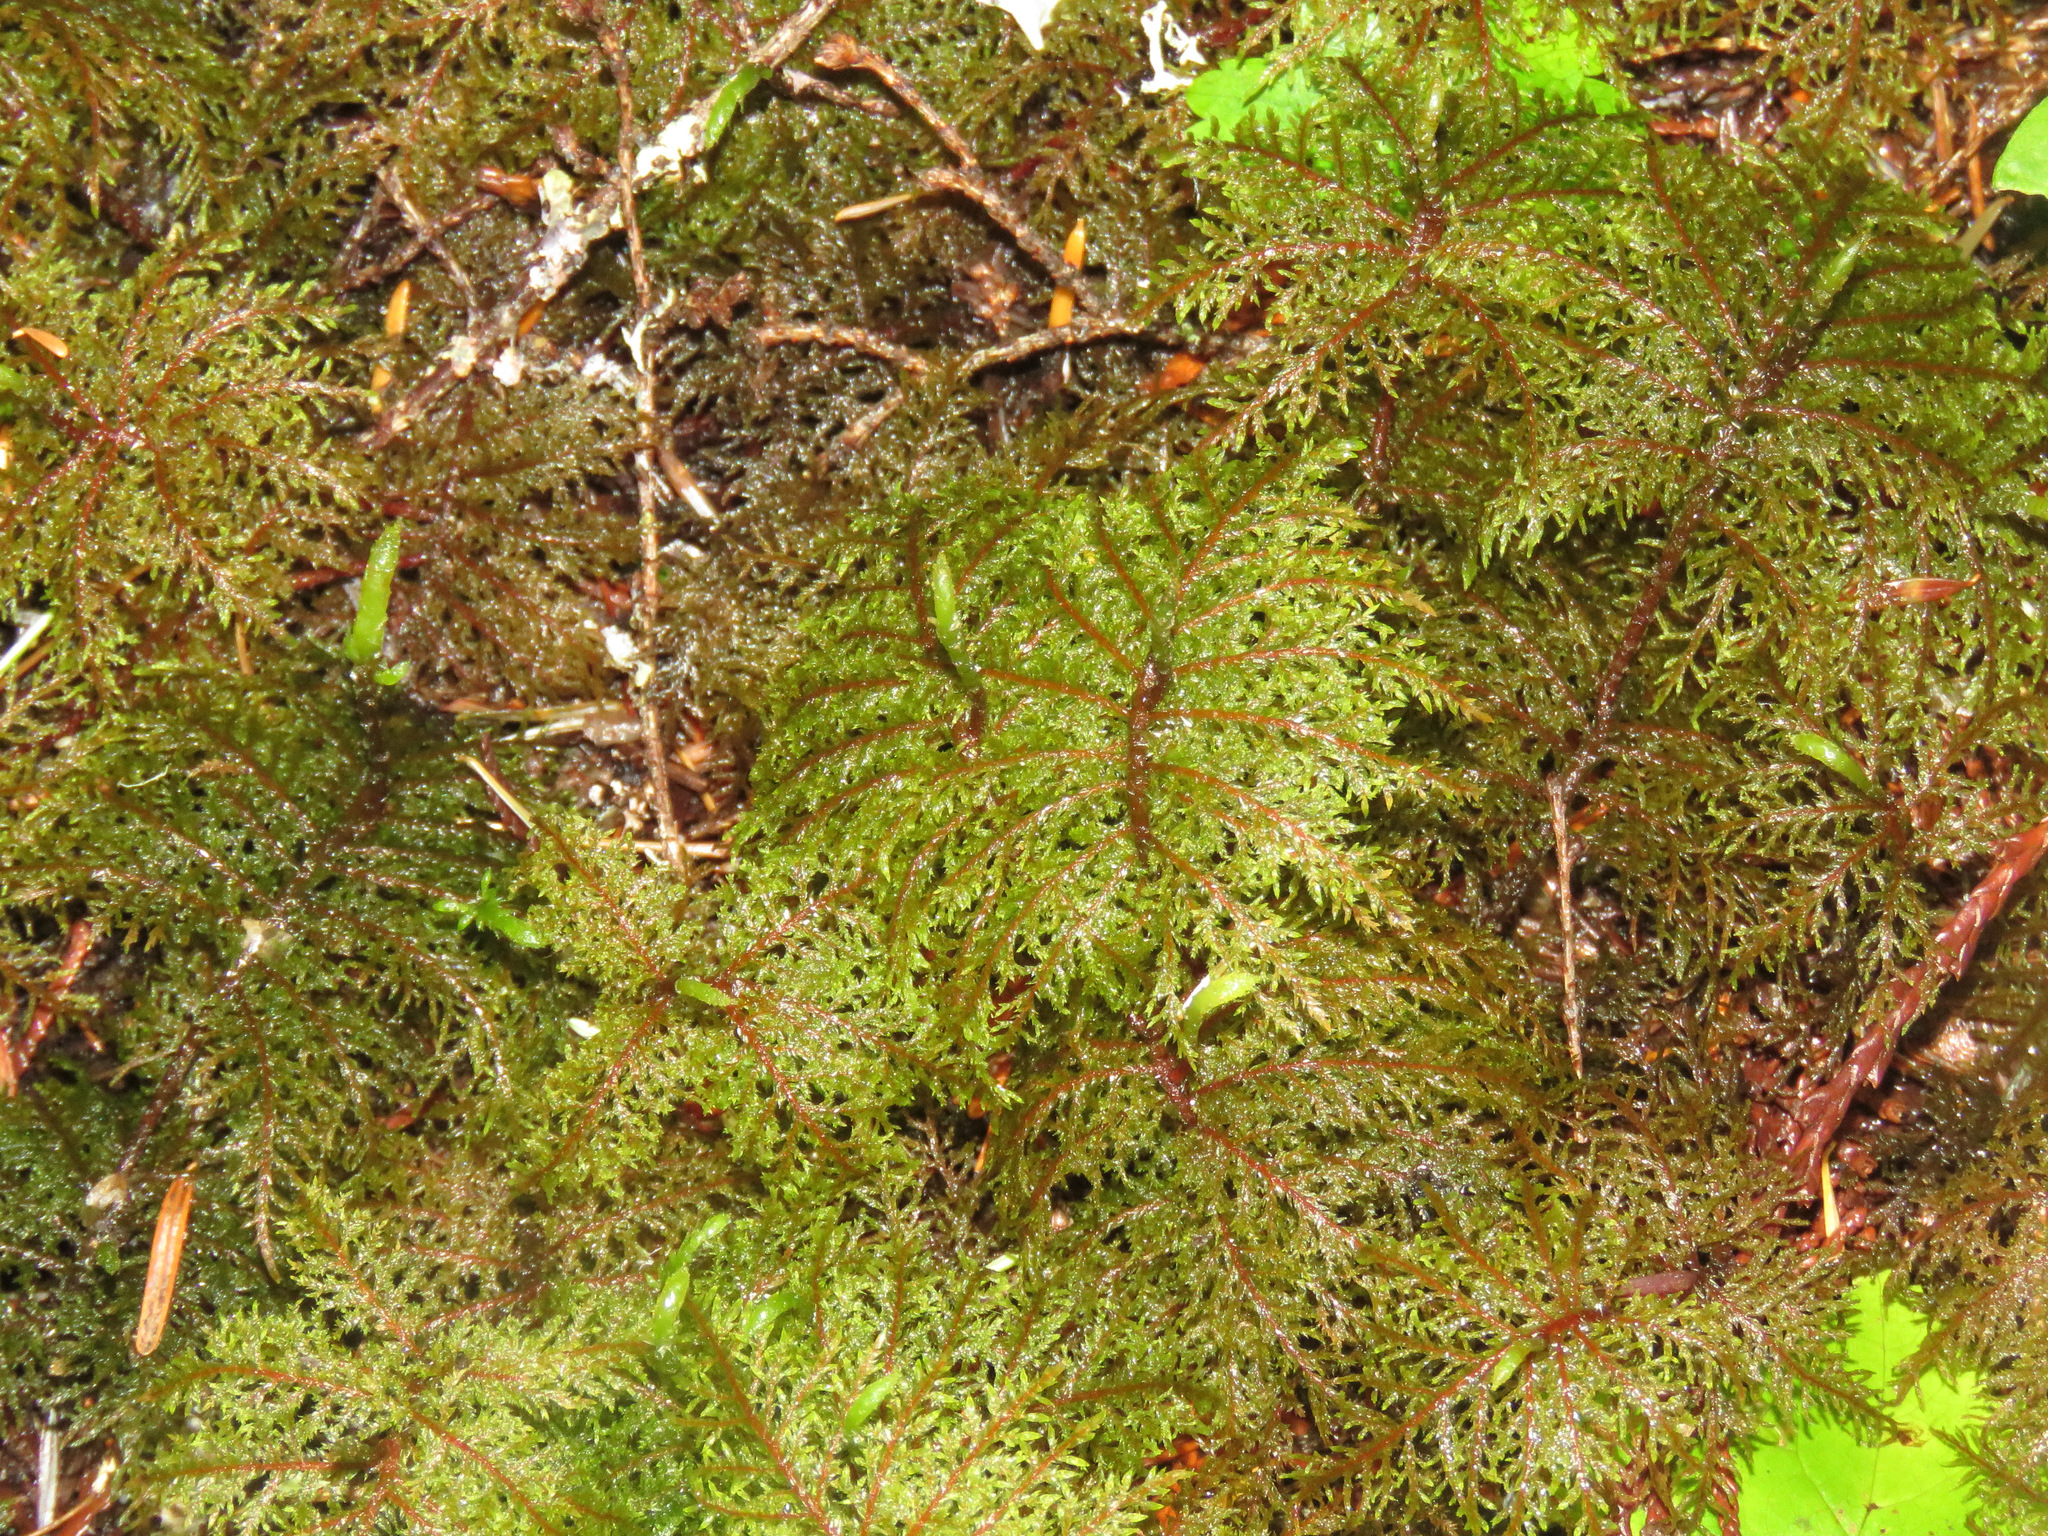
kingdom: Plantae
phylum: Bryophyta
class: Bryopsida
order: Hypnales
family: Hylocomiaceae
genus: Hylocomium
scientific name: Hylocomium splendens
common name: Stairstep moss
